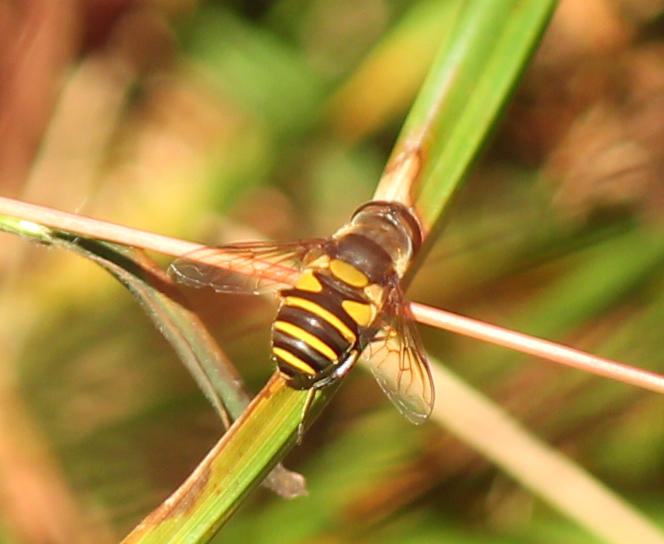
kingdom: Animalia
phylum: Arthropoda
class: Insecta
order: Diptera
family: Syrphidae
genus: Eristalis
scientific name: Eristalis transversa
